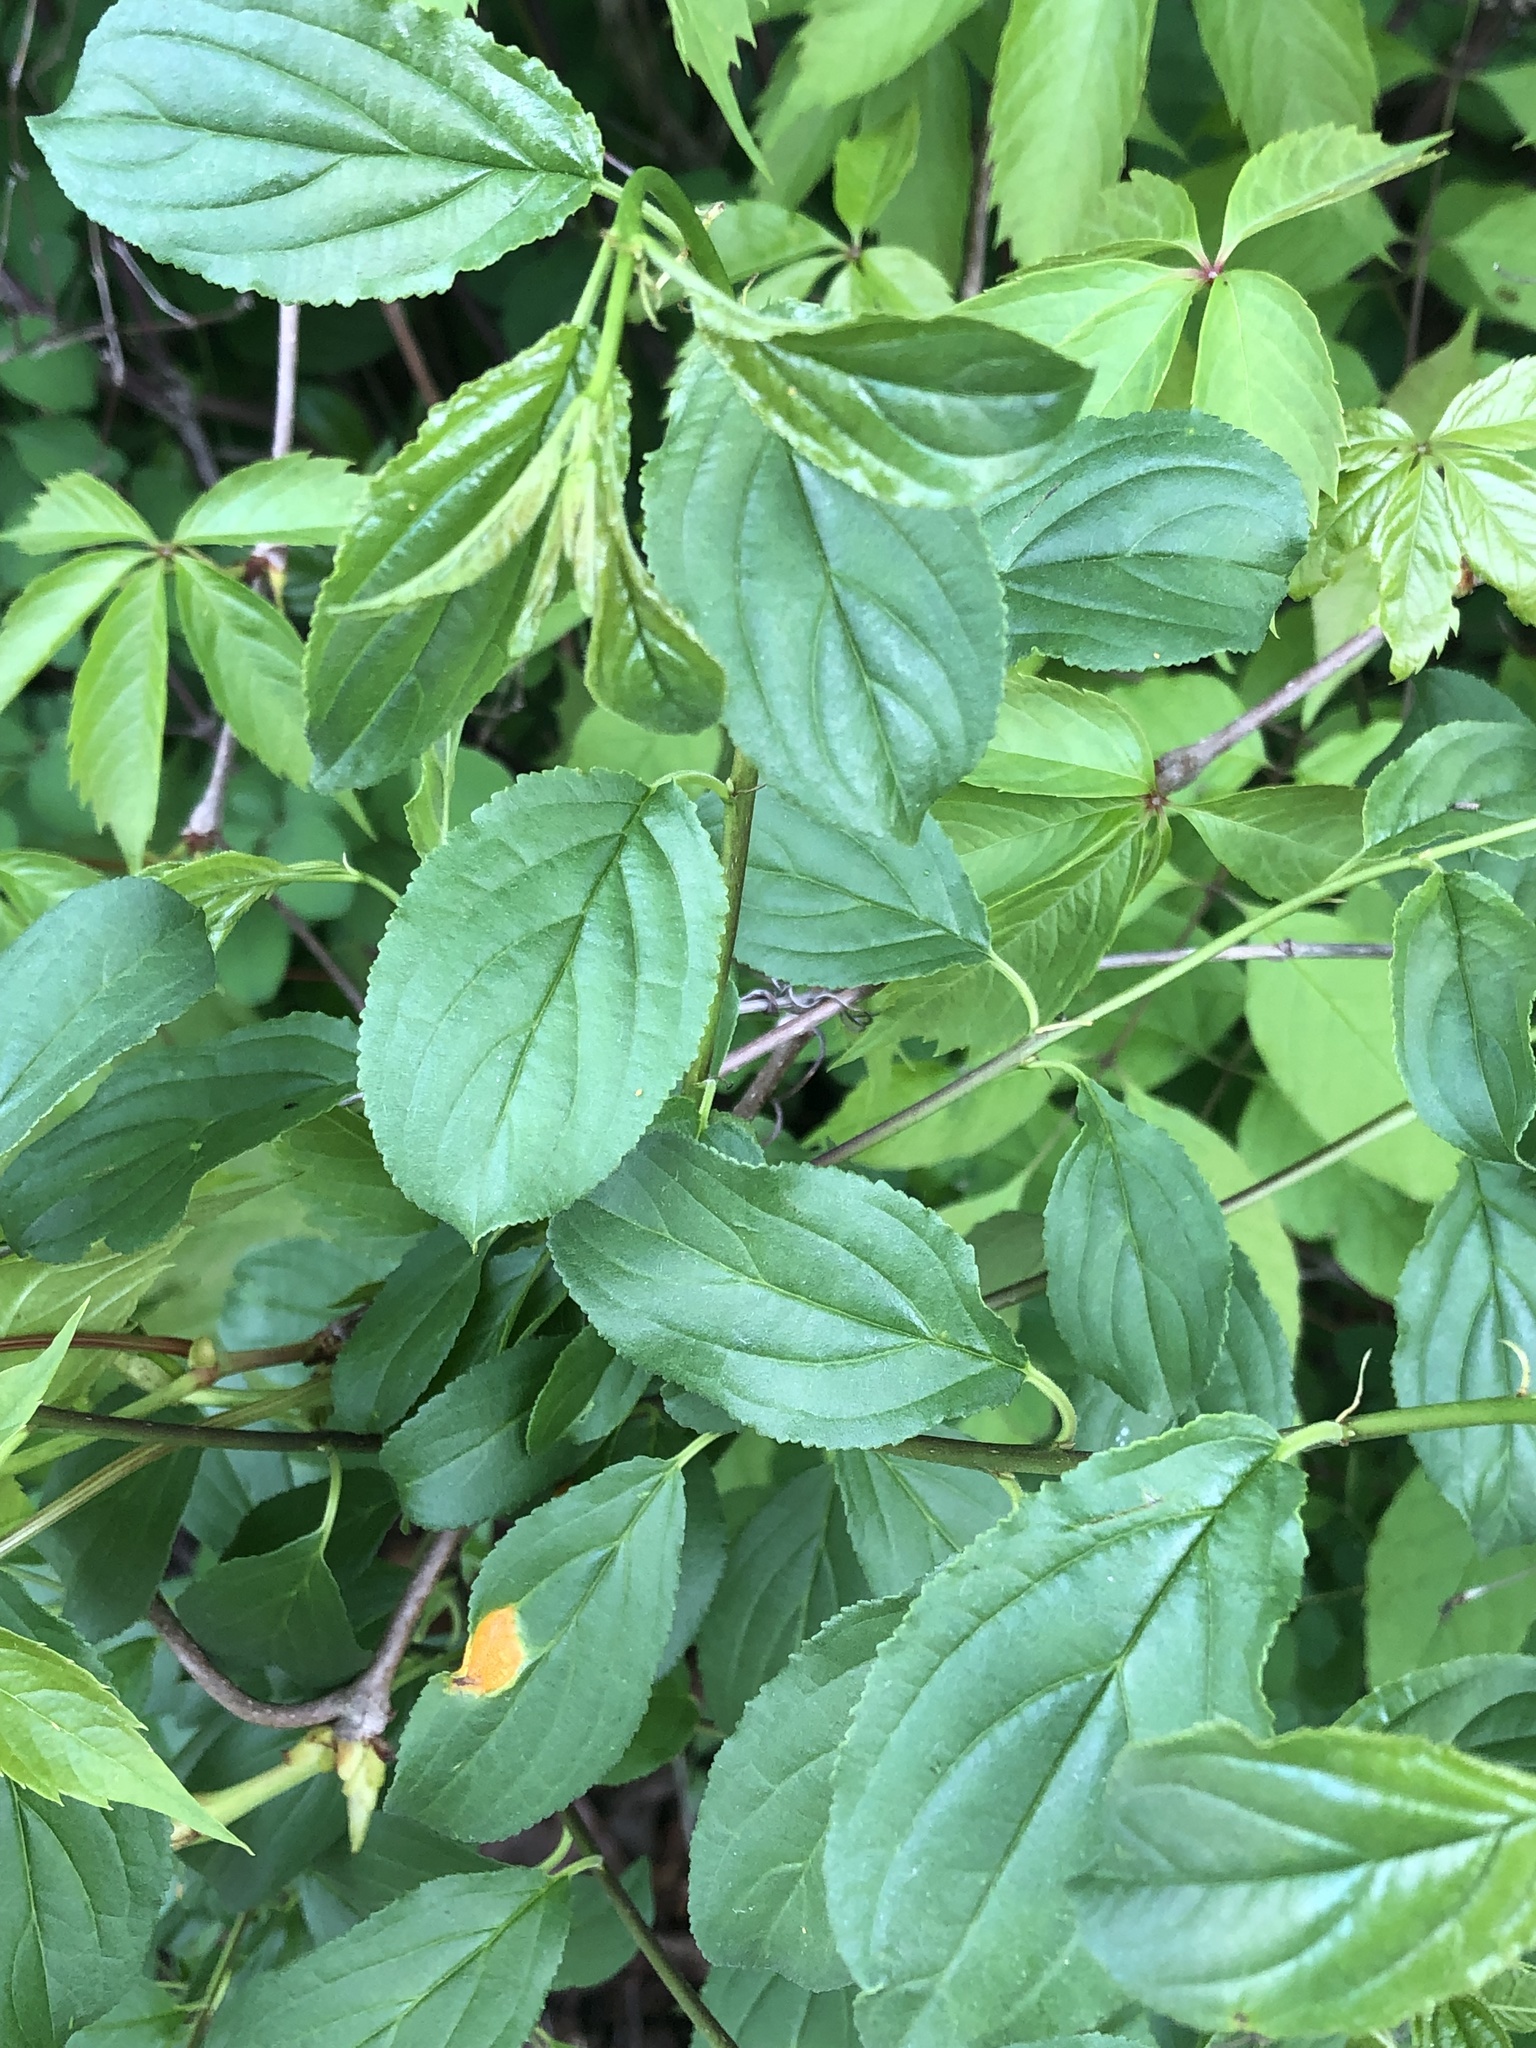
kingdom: Plantae
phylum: Tracheophyta
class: Magnoliopsida
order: Rosales
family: Rhamnaceae
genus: Rhamnus
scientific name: Rhamnus cathartica
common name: Common buckthorn
